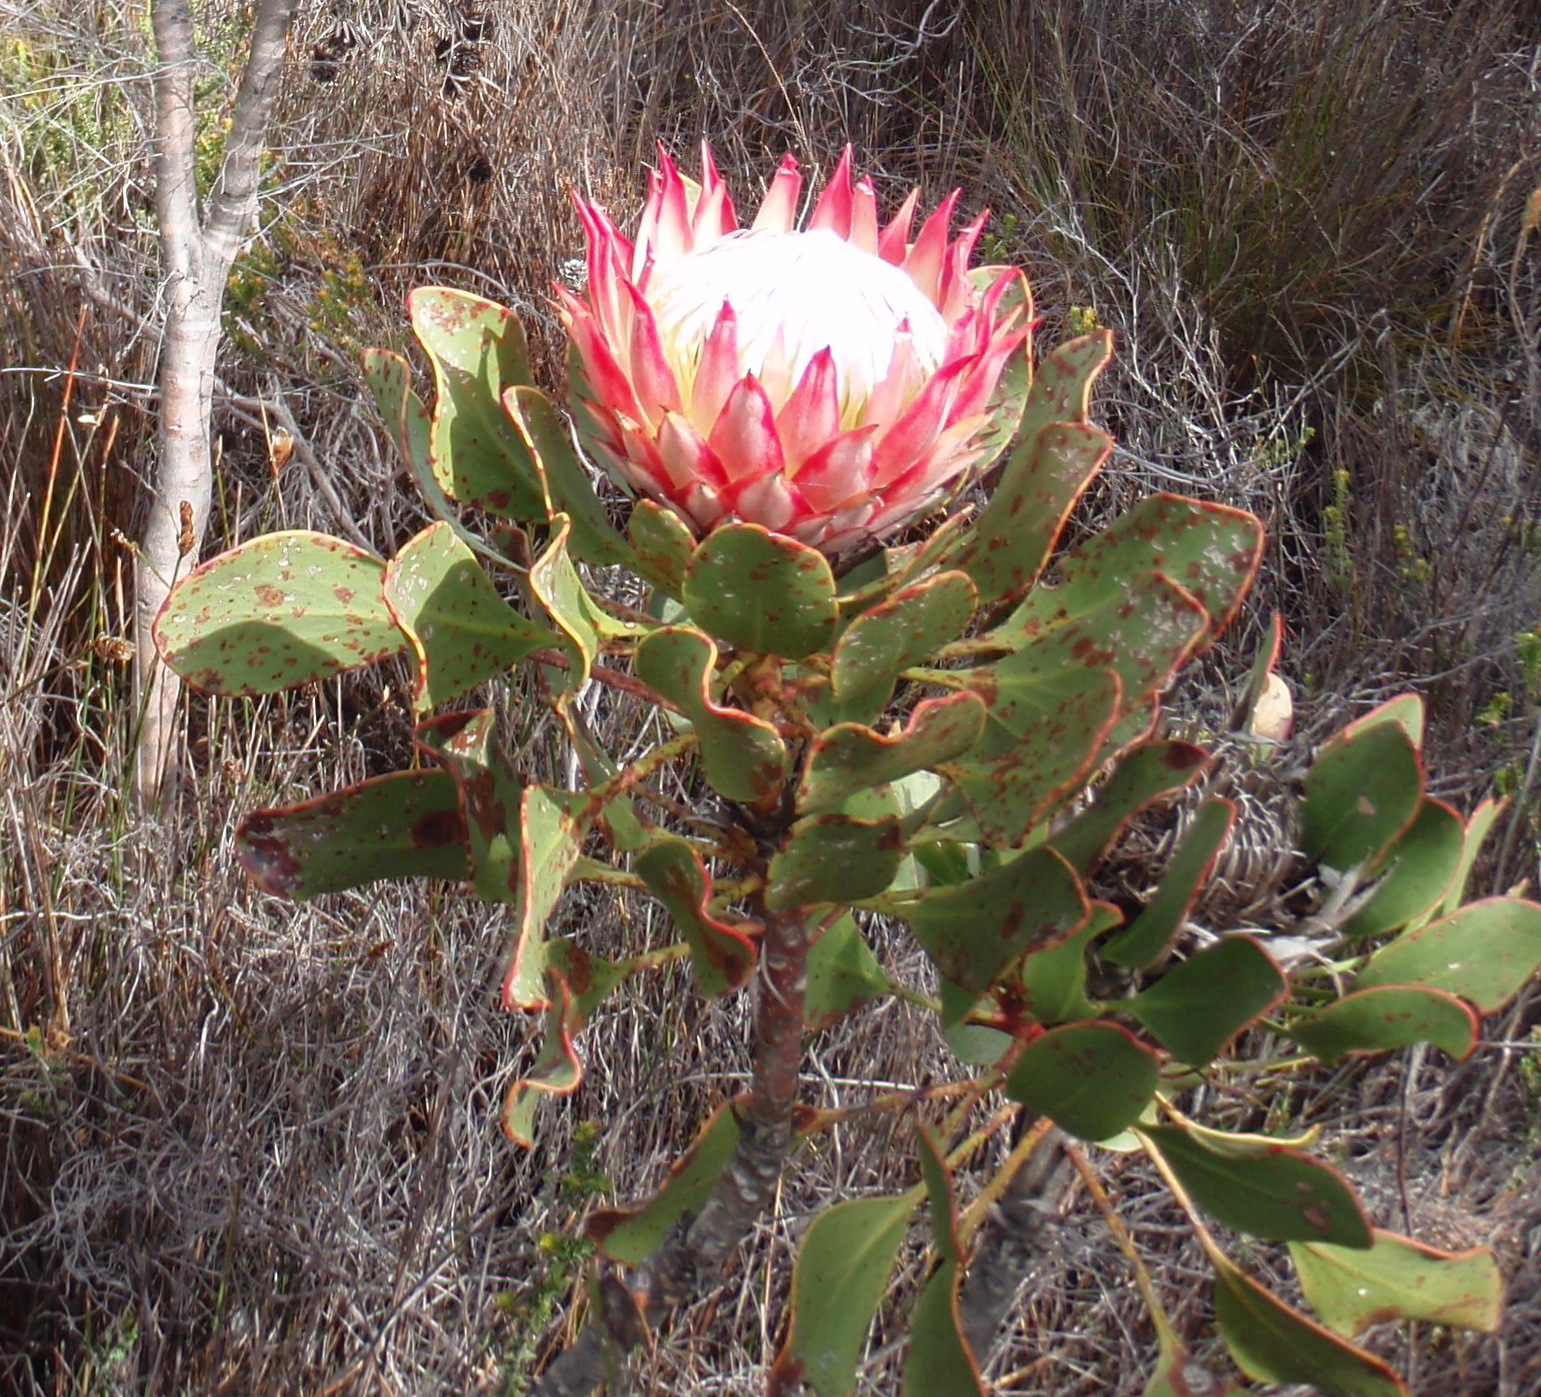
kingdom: Plantae
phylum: Tracheophyta
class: Magnoliopsida
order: Proteales
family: Proteaceae
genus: Protea
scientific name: Protea cynaroides
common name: King protea
